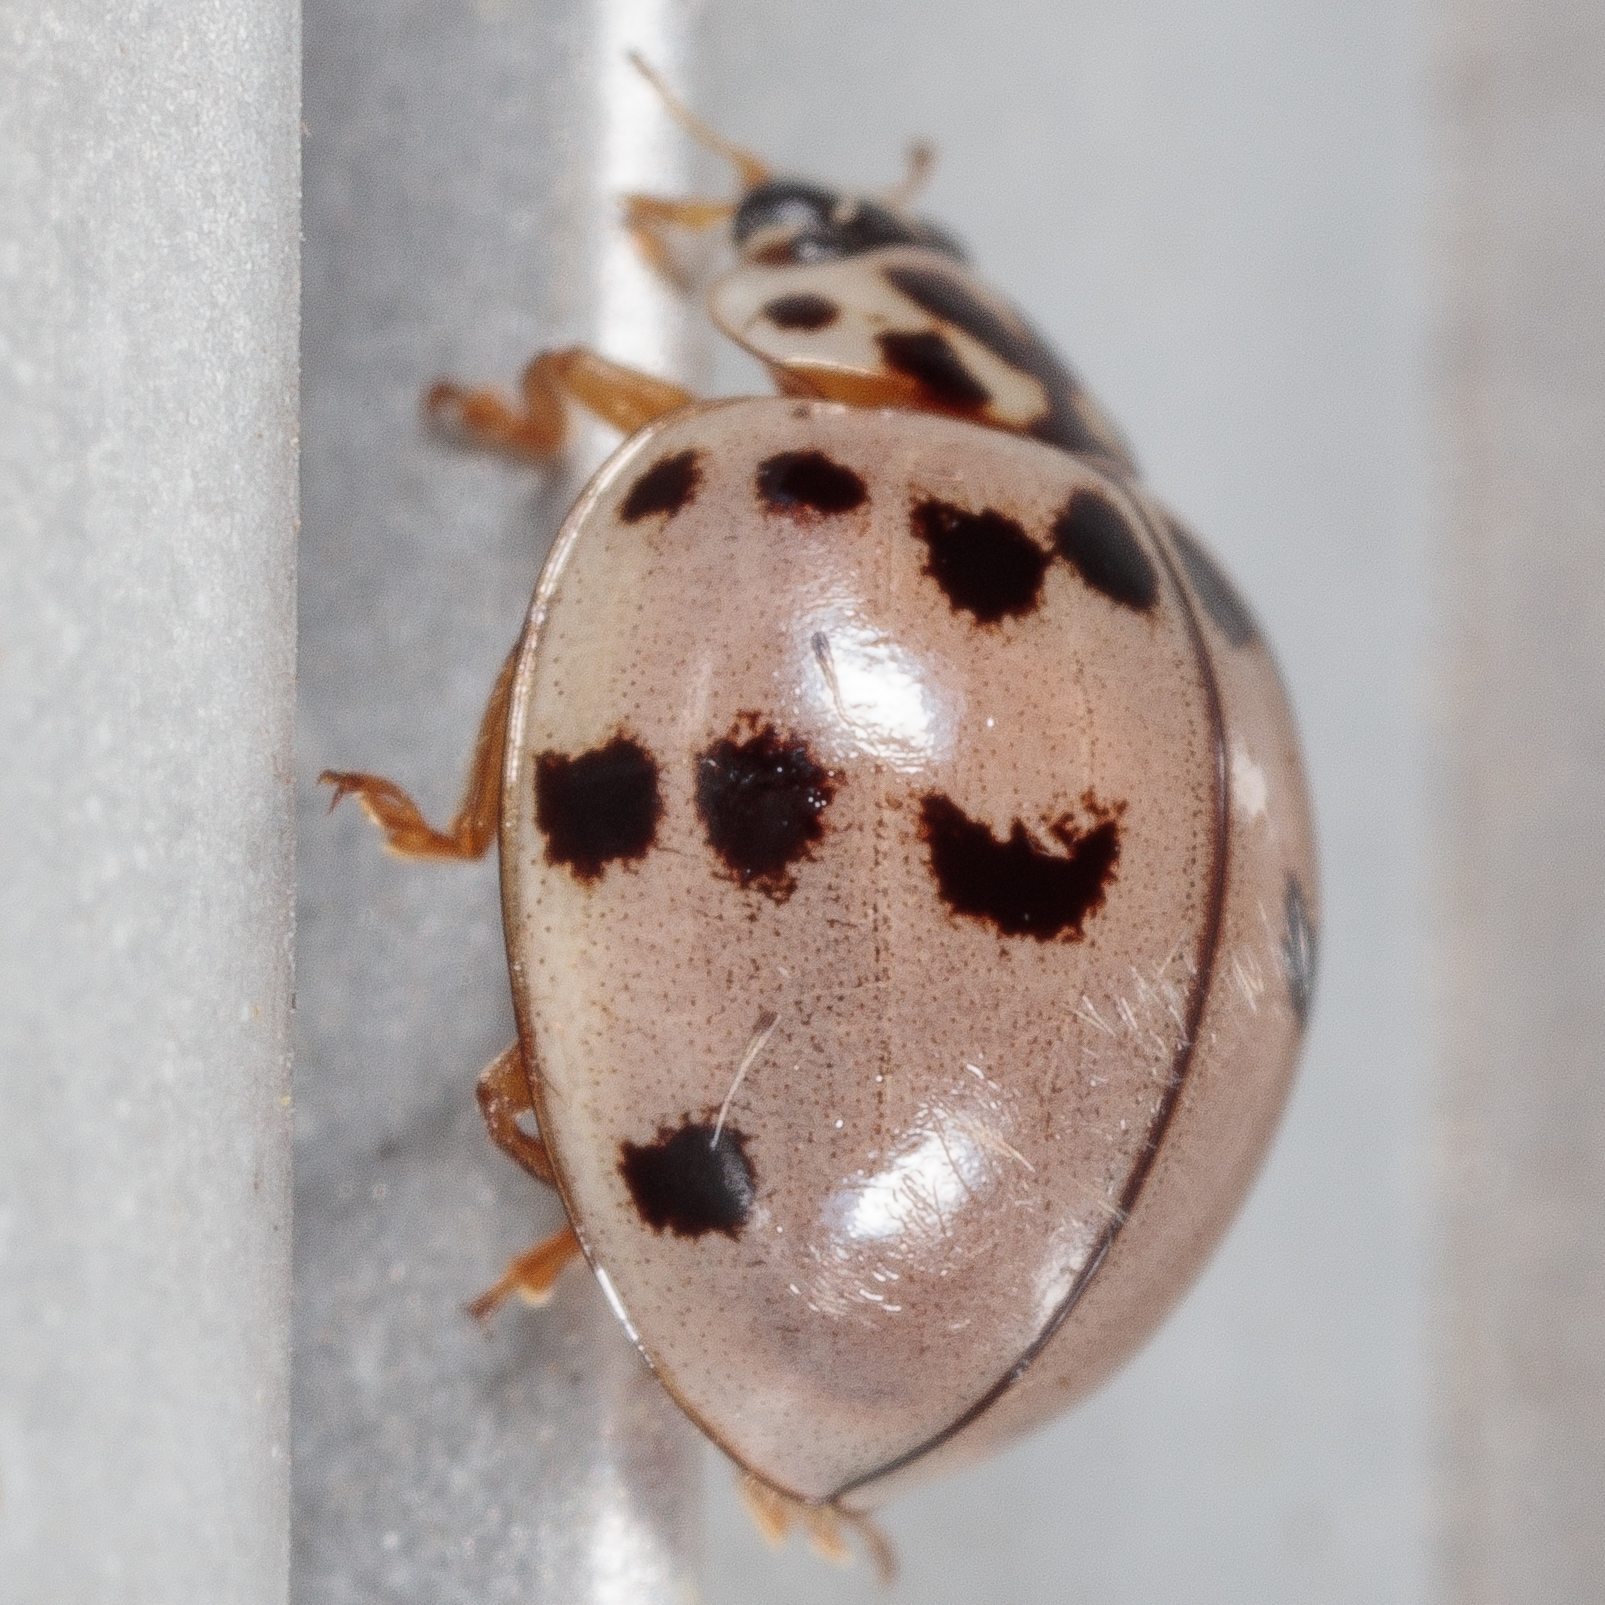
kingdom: Animalia
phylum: Arthropoda
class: Insecta
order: Coleoptera
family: Coccinellidae
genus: Olla
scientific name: Olla v-nigrum
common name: Ashy gray lady beetle
